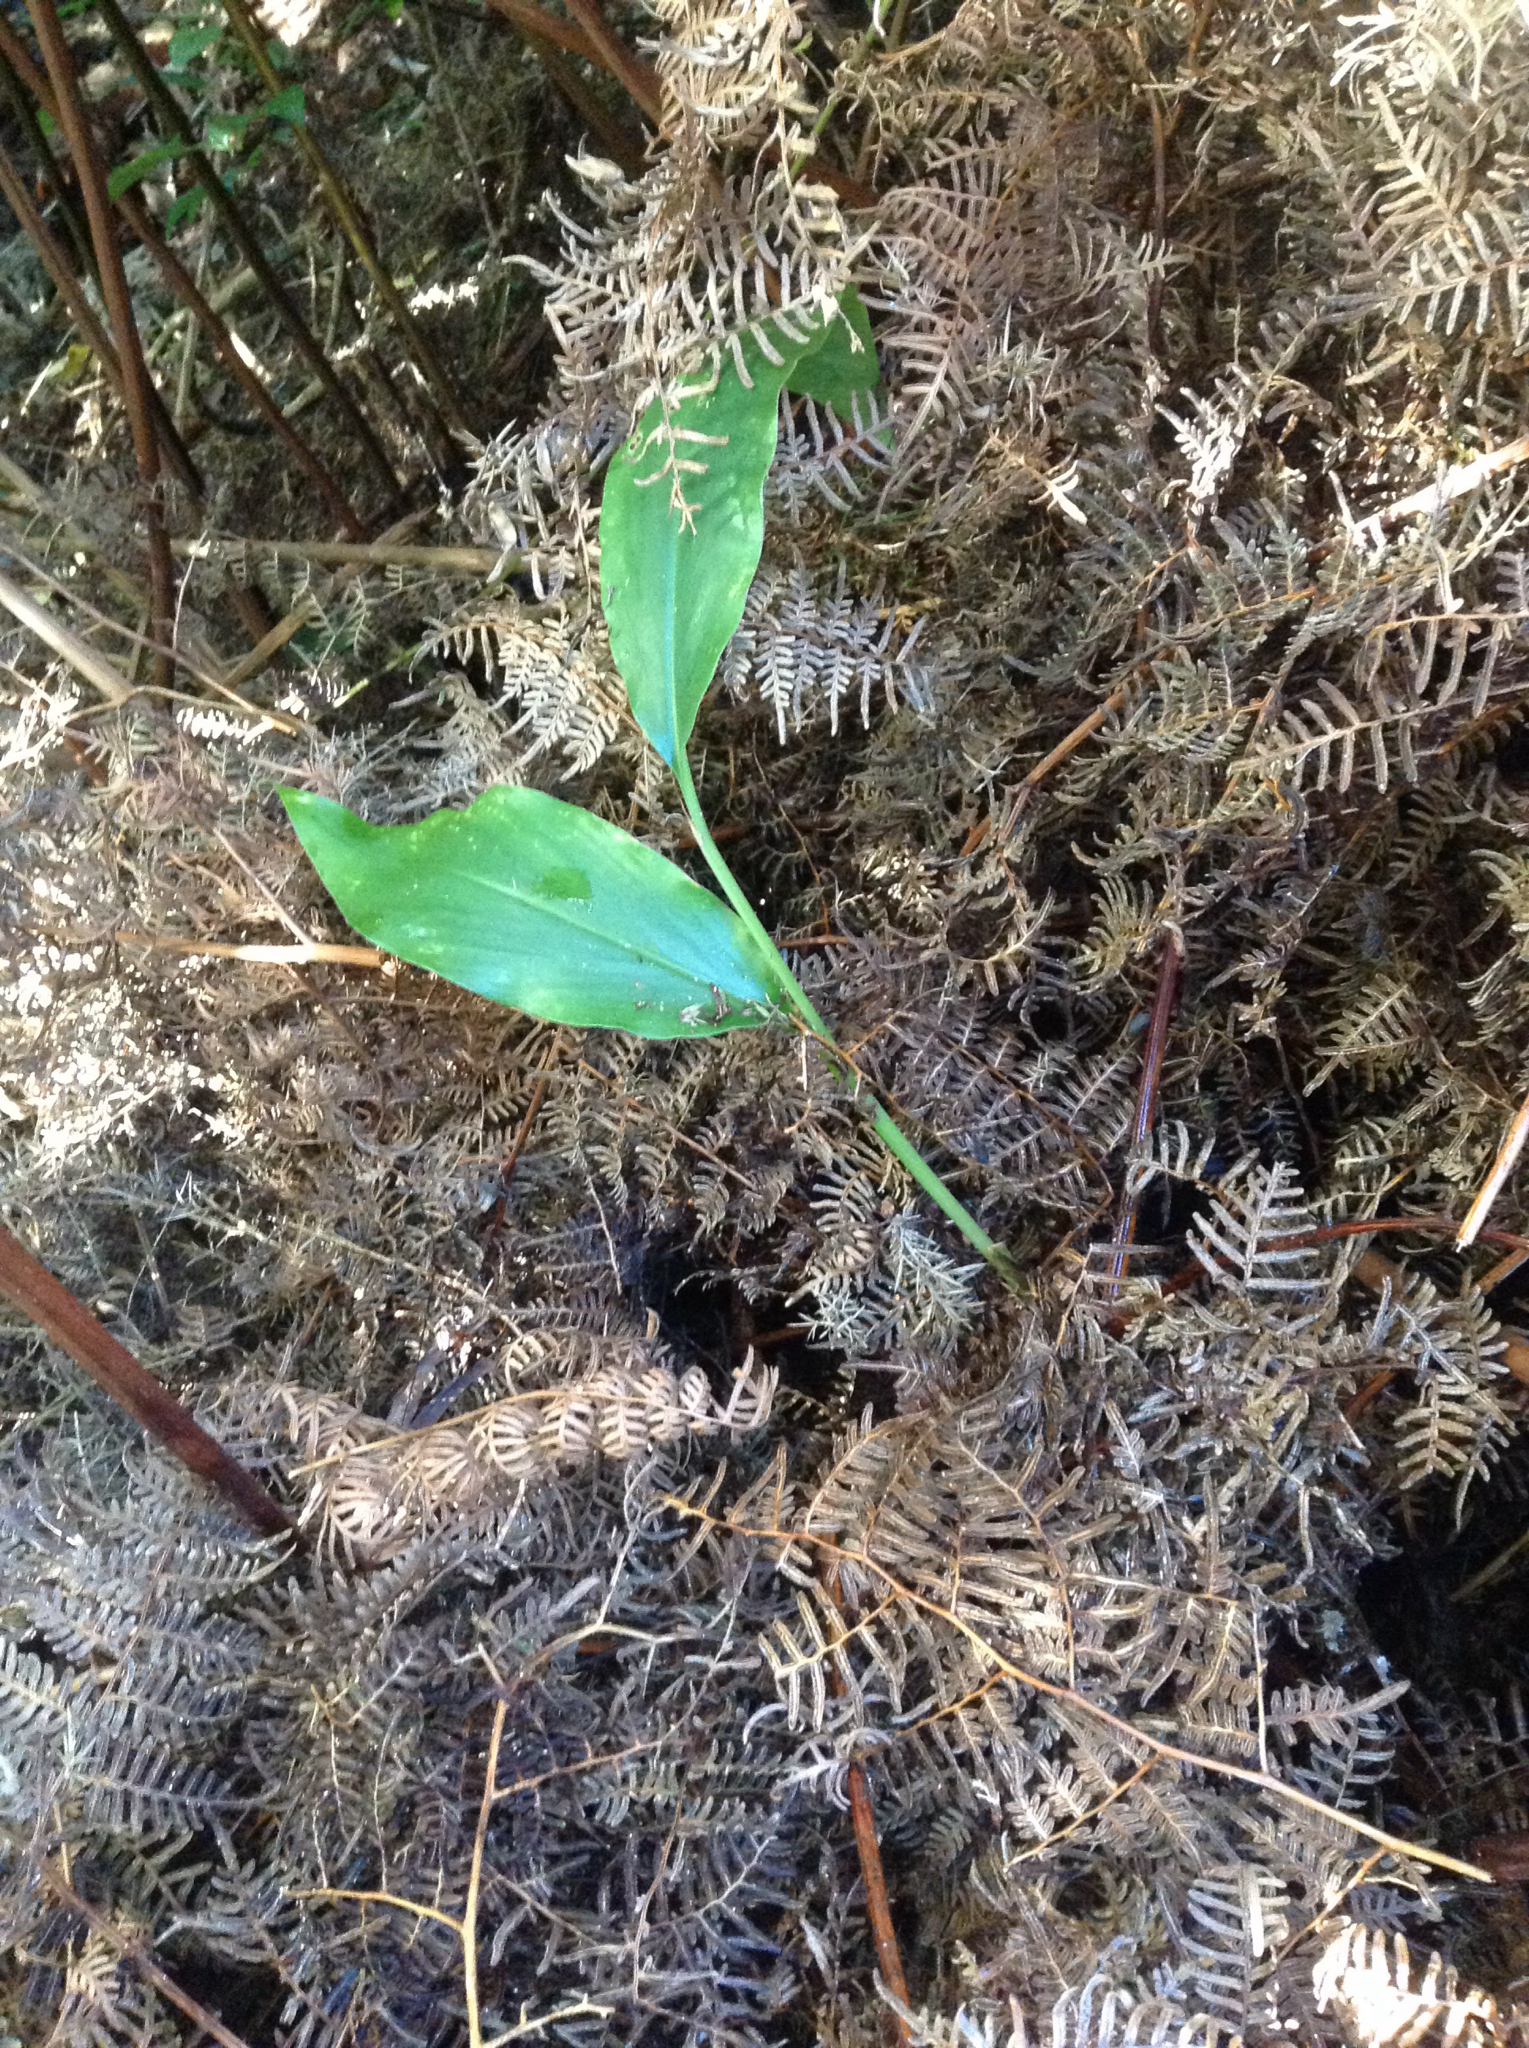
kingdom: Plantae
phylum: Tracheophyta
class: Liliopsida
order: Zingiberales
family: Zingiberaceae
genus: Hedychium
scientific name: Hedychium gardnerianum
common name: Himalayan ginger
